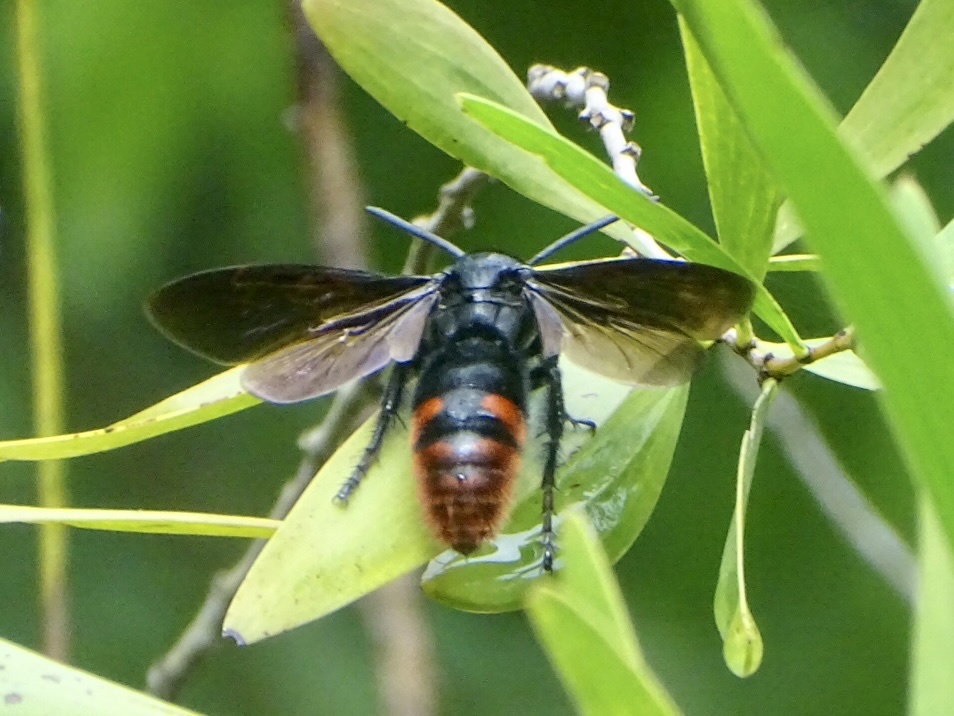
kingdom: Animalia
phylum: Arthropoda
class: Insecta
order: Hymenoptera
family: Scoliidae
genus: Megascolia
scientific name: Megascolia azurea
